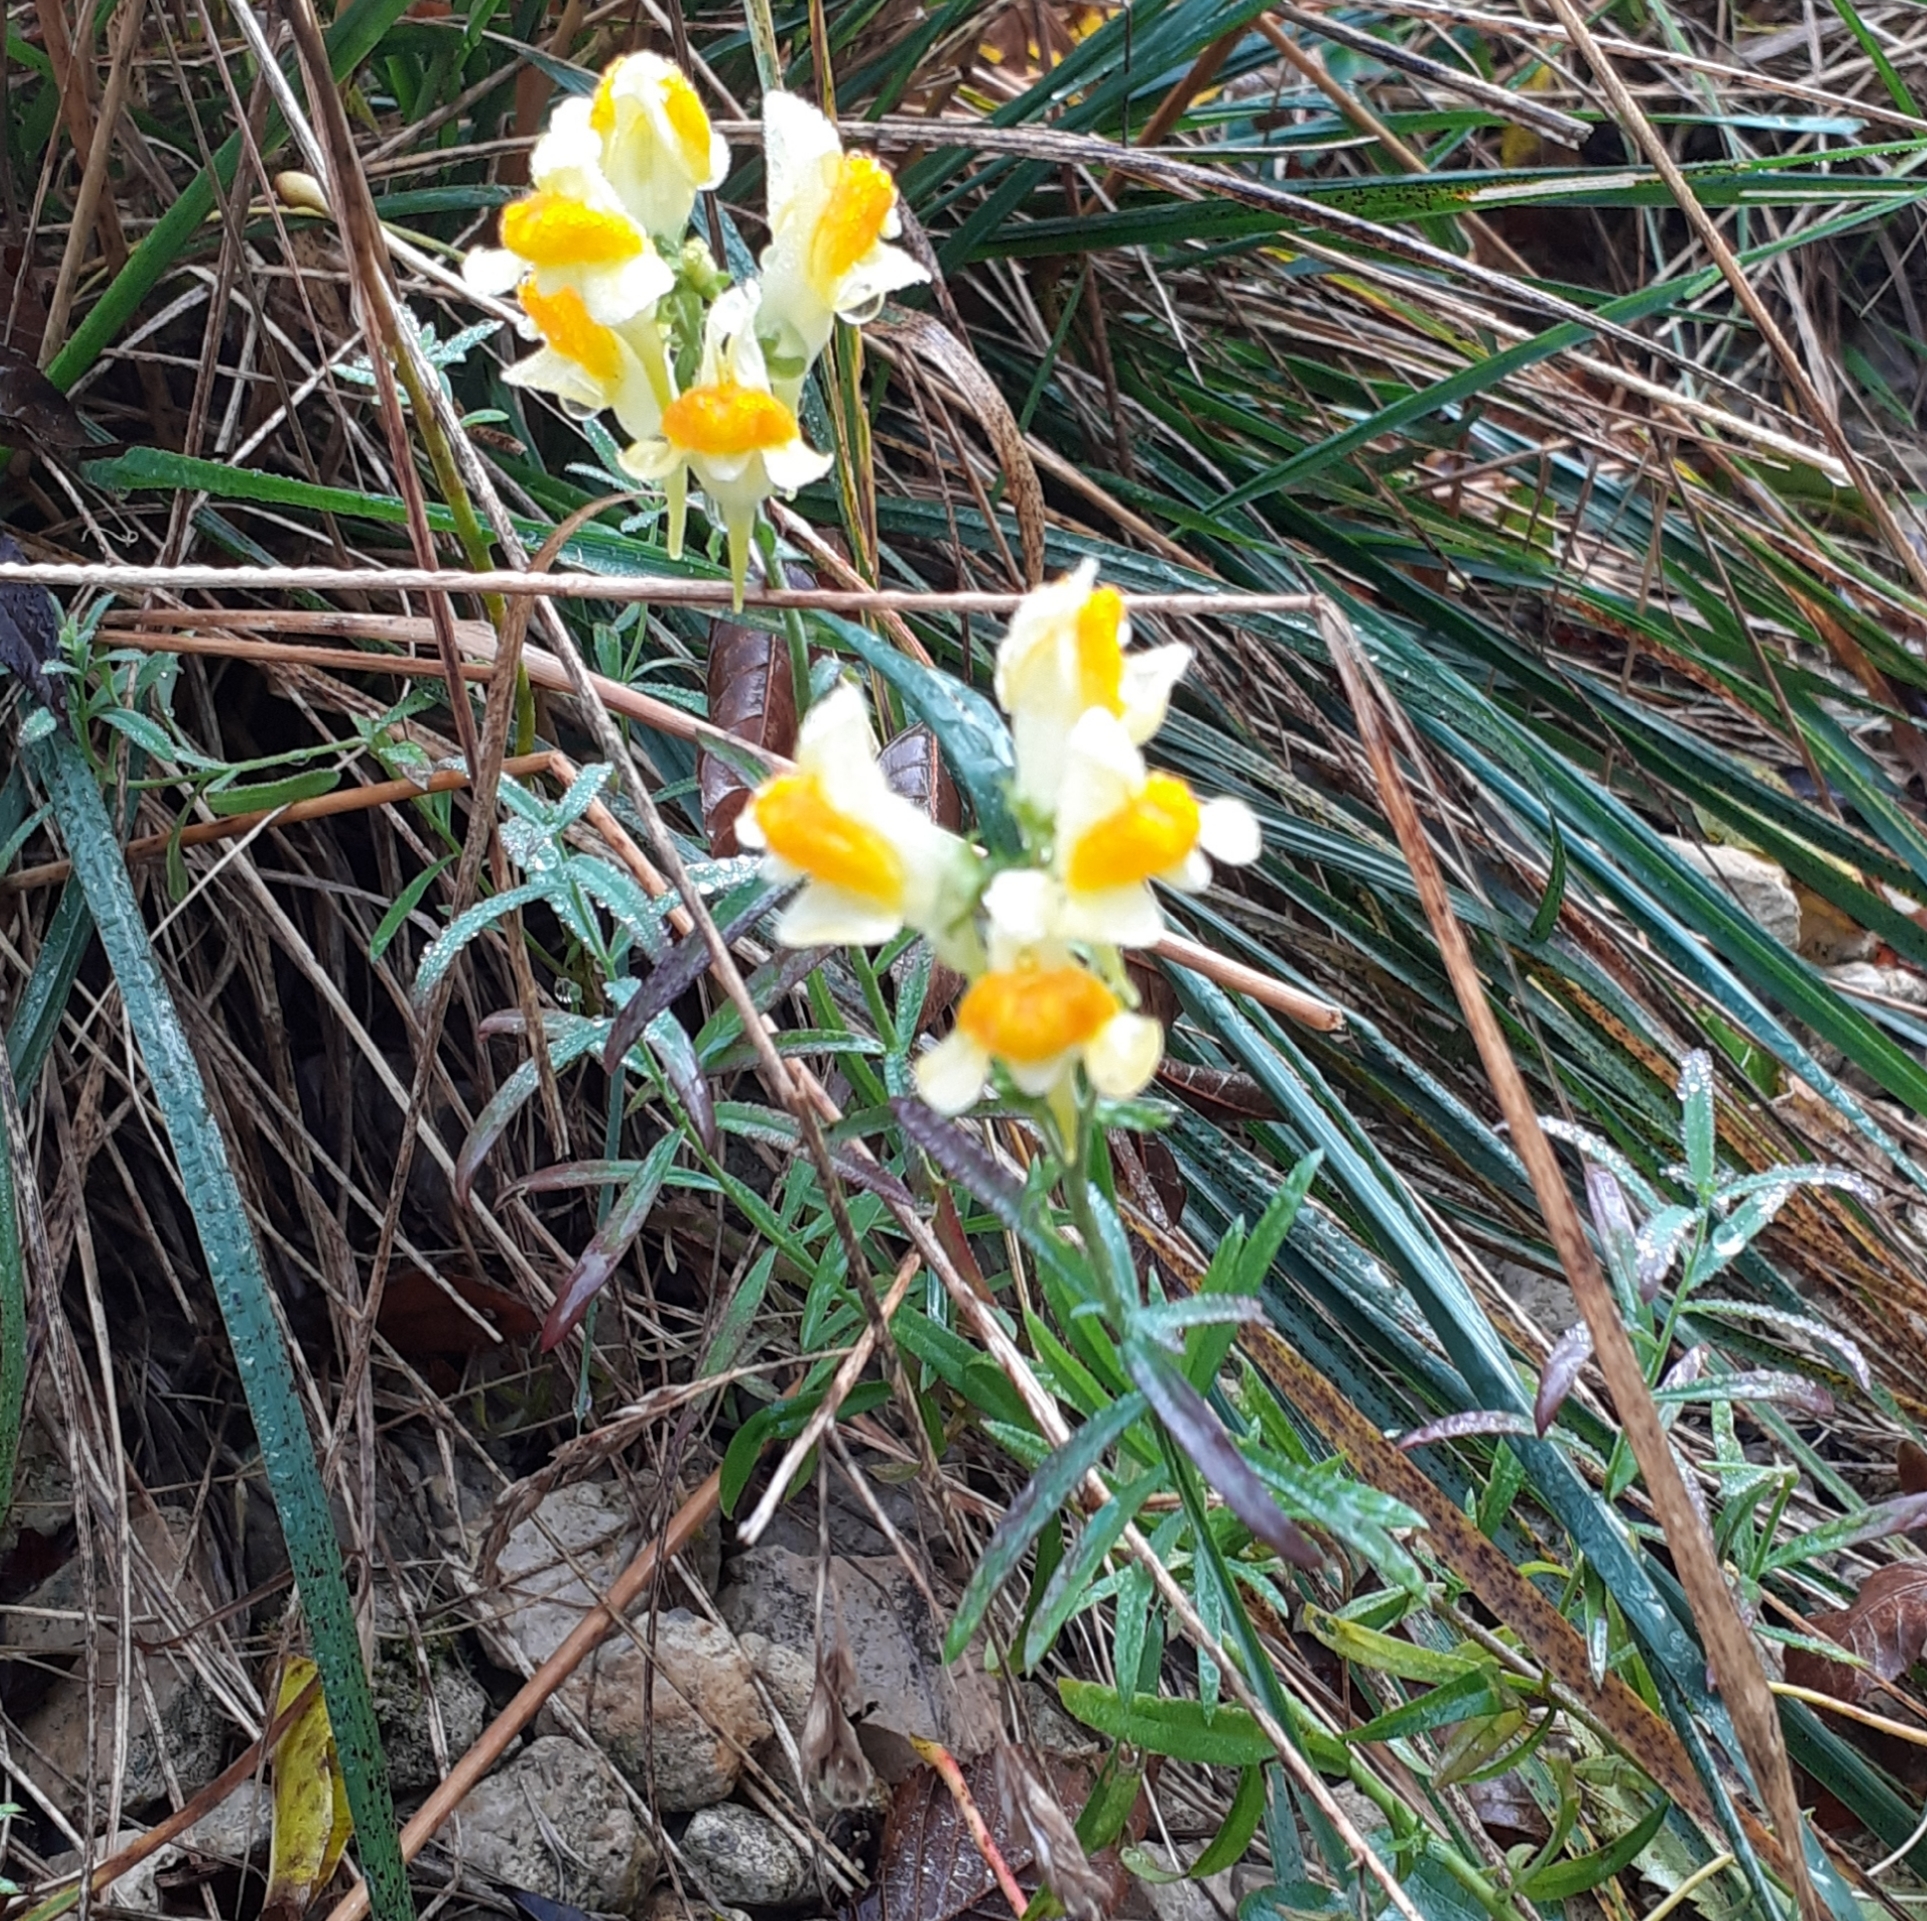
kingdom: Plantae
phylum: Tracheophyta
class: Magnoliopsida
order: Lamiales
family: Plantaginaceae
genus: Linaria
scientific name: Linaria vulgaris
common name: Butter and eggs
